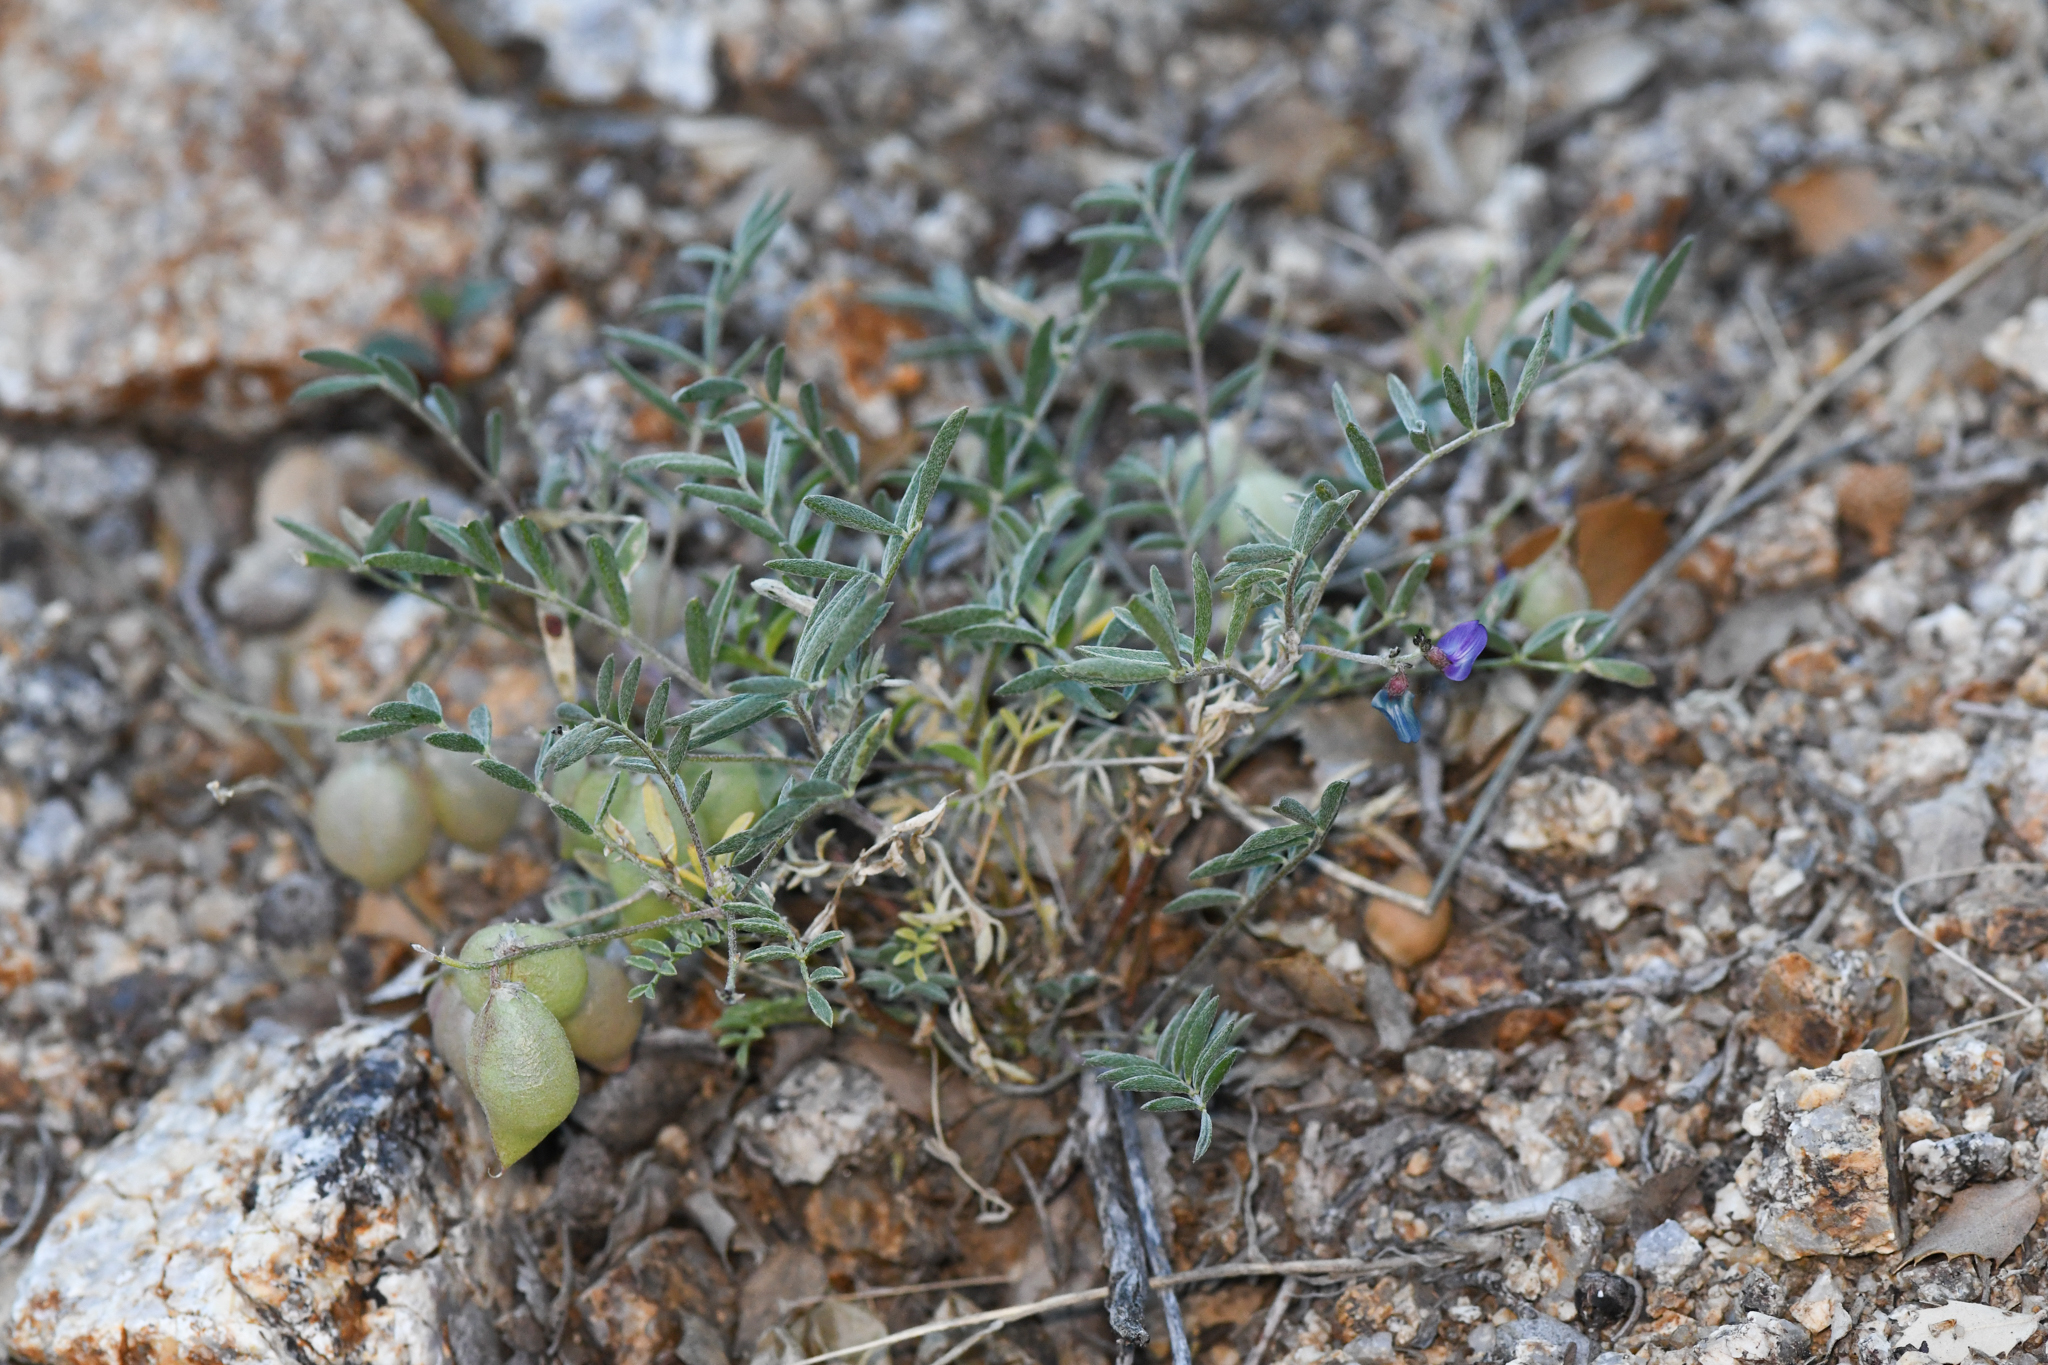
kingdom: Plantae
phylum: Tracheophyta
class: Magnoliopsida
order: Fabales
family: Fabaceae
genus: Astragalus
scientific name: Astragalus nutans
